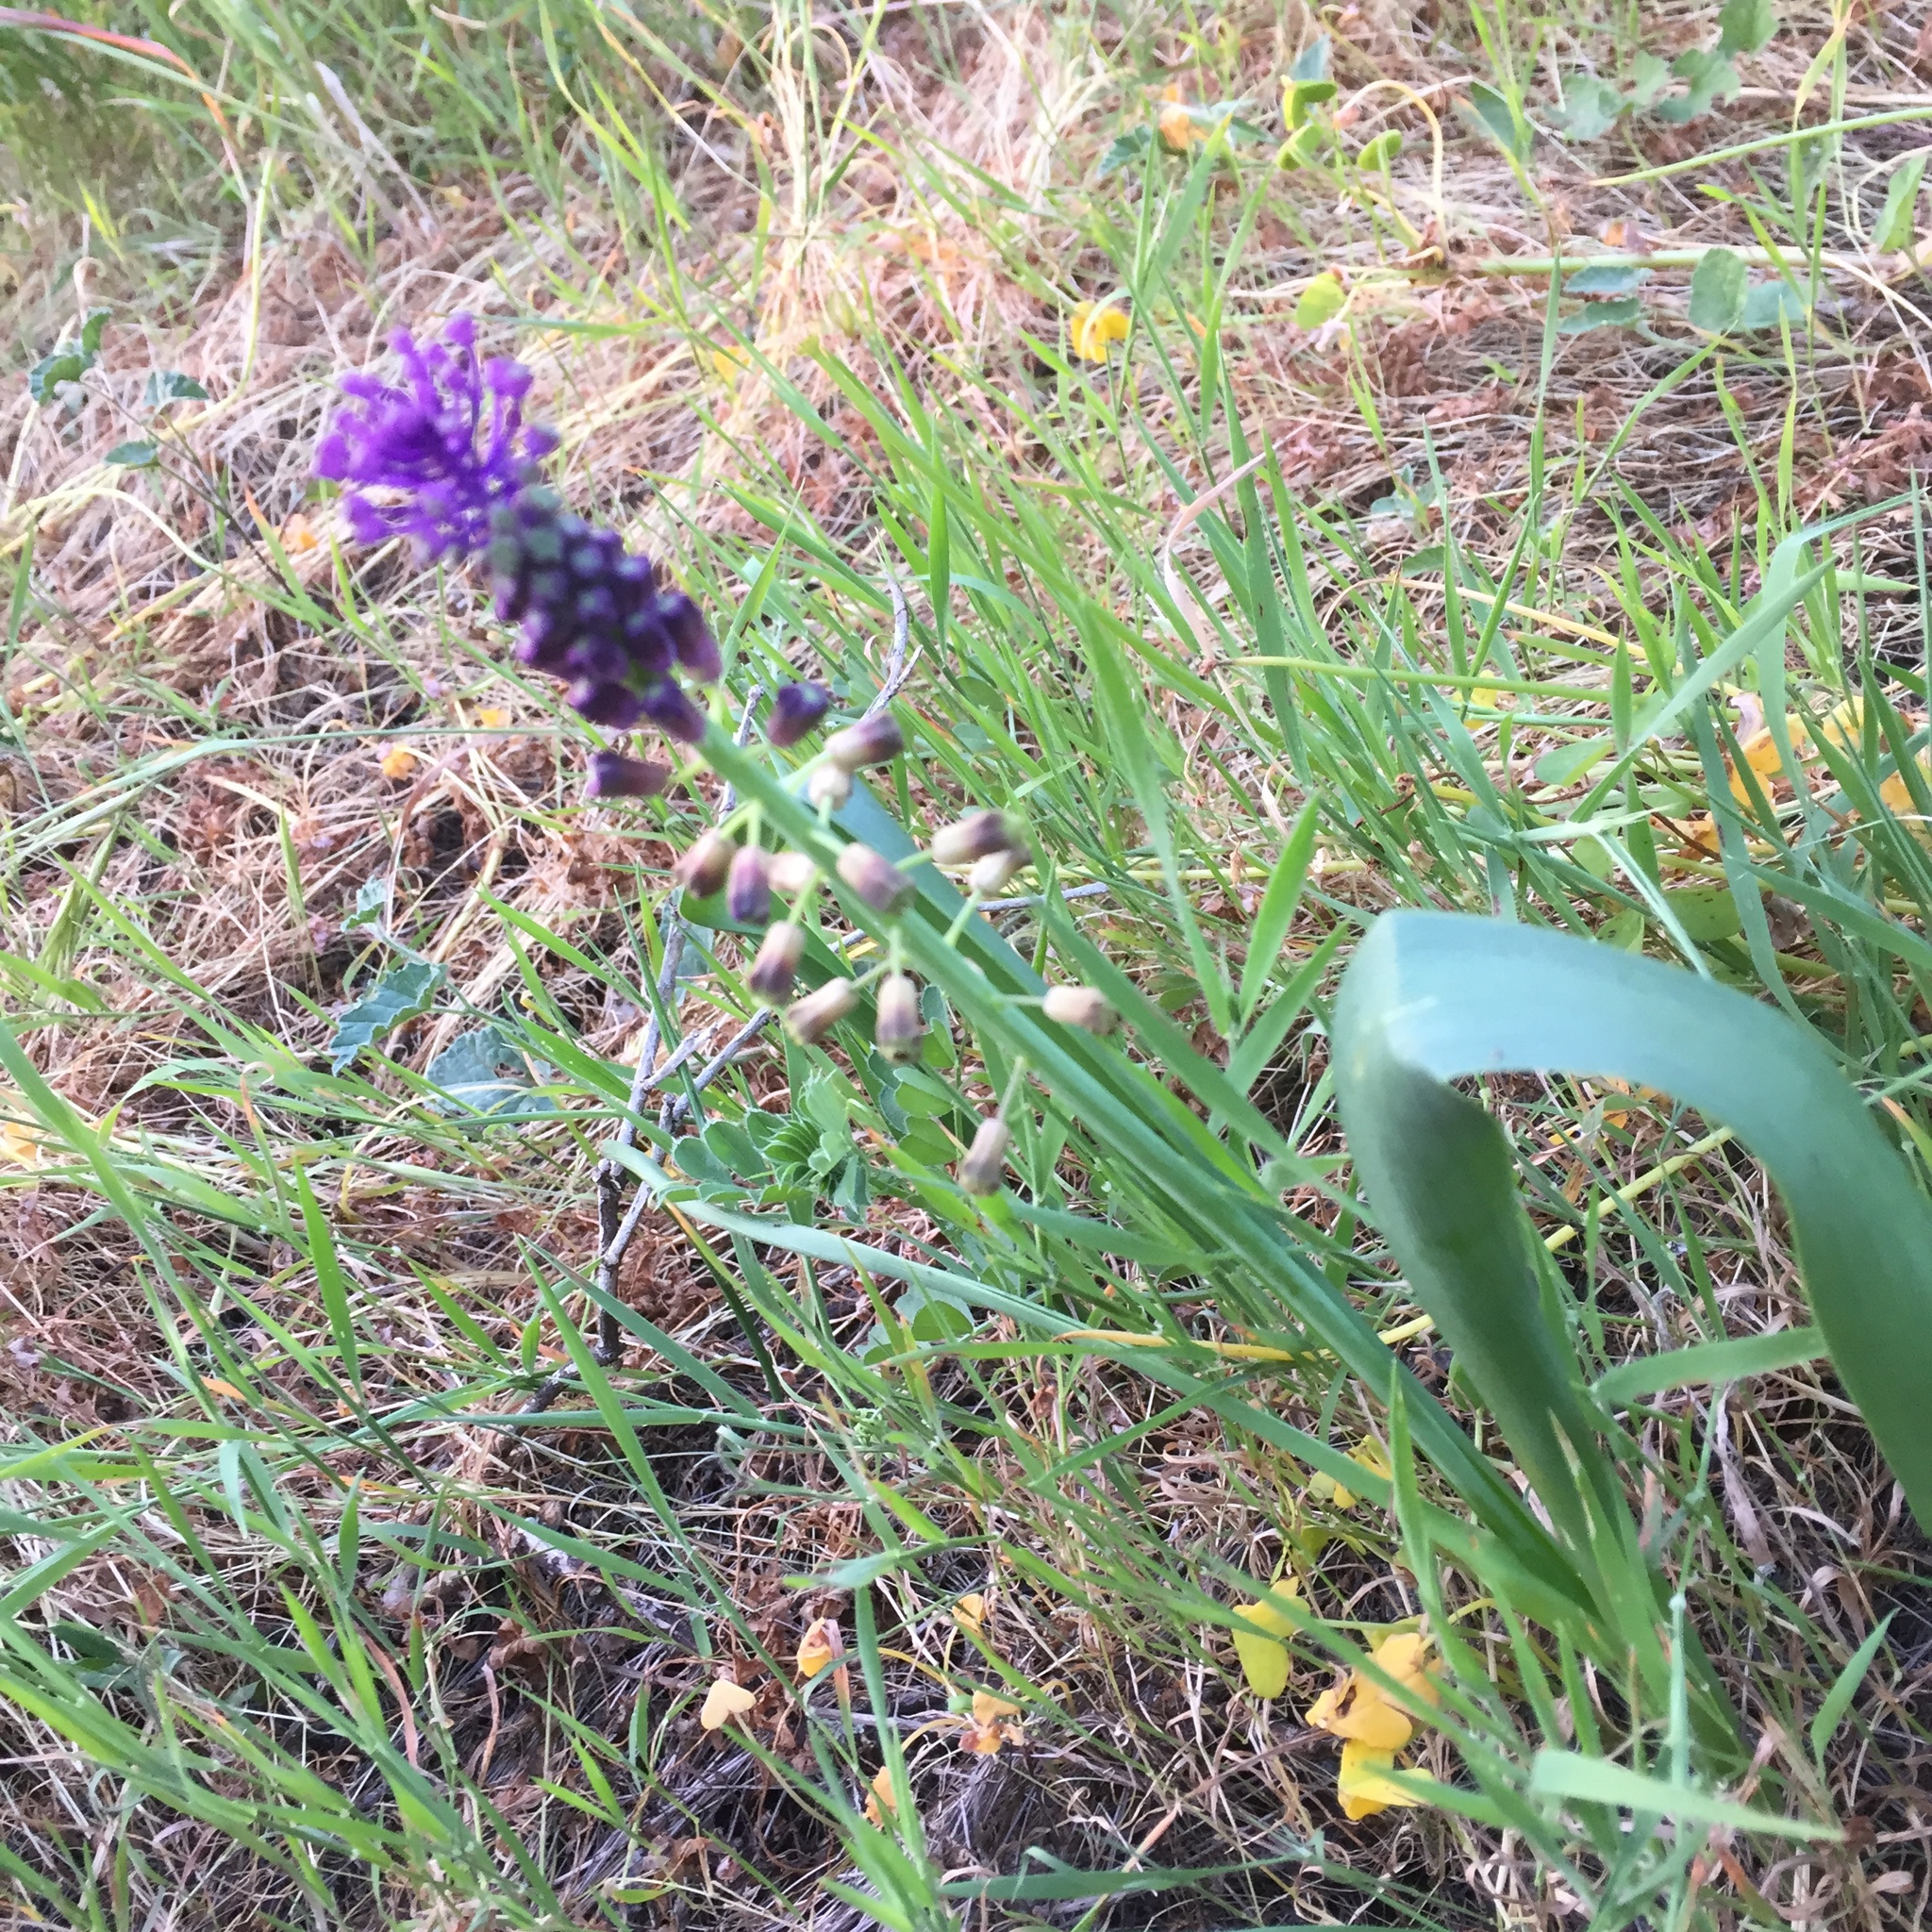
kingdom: Plantae
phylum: Tracheophyta
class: Liliopsida
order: Asparagales
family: Asparagaceae
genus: Muscari
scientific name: Muscari comosum
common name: Tassel hyacinth
